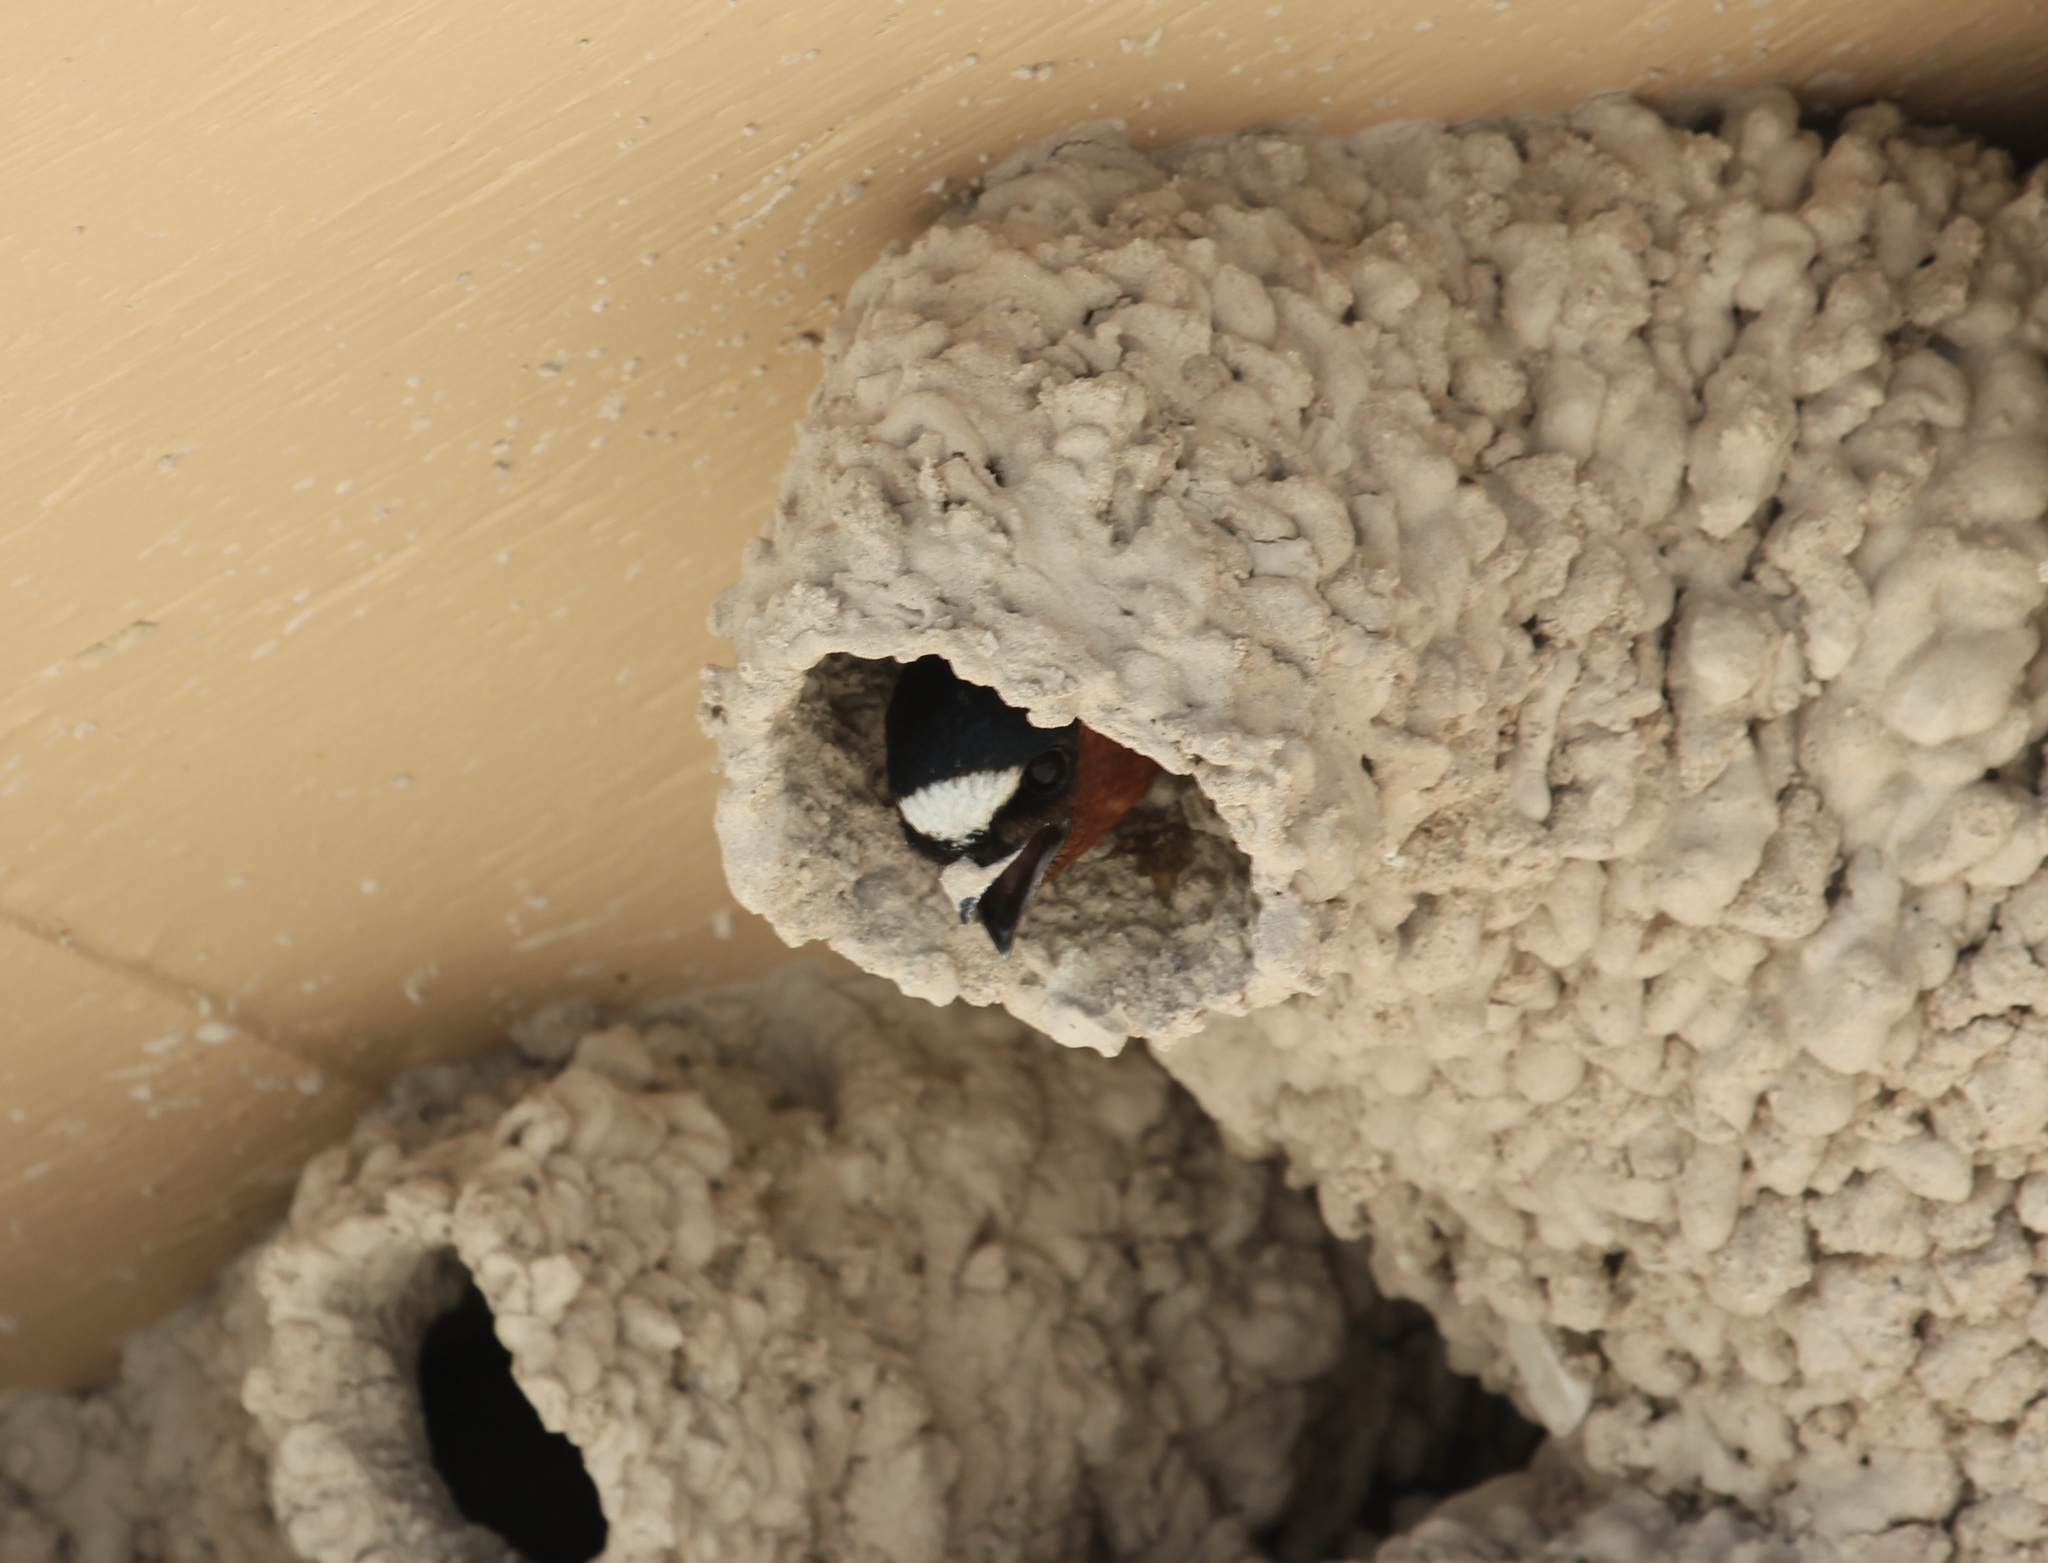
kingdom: Animalia
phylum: Chordata
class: Aves
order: Passeriformes
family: Hirundinidae
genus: Petrochelidon
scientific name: Petrochelidon pyrrhonota
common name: American cliff swallow
